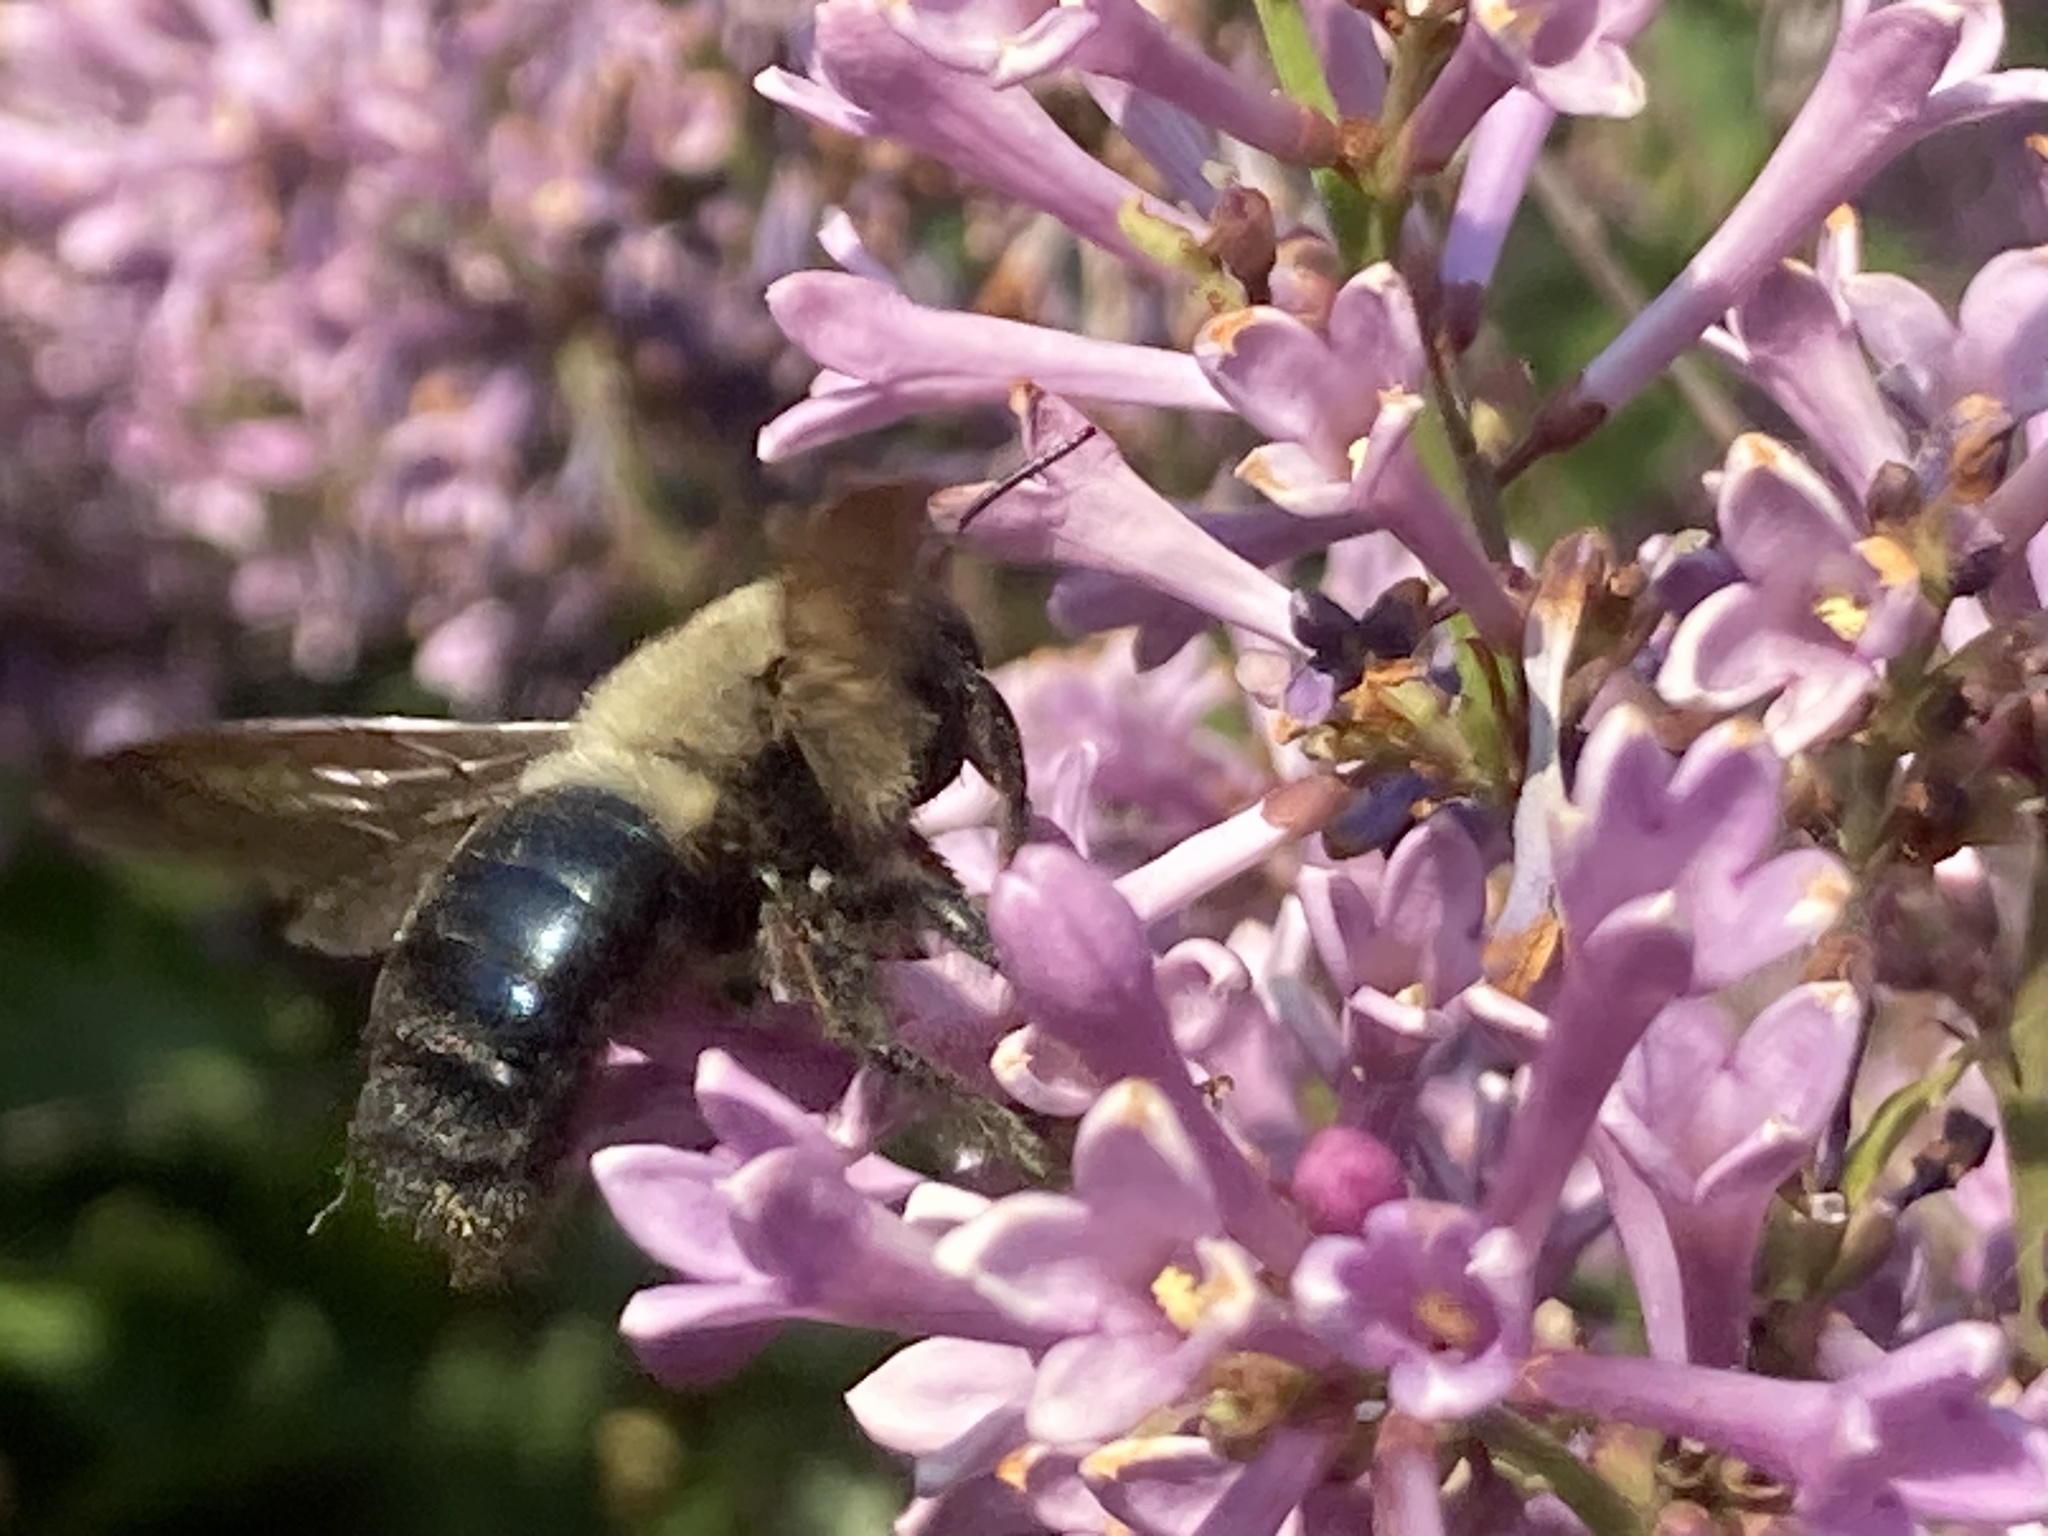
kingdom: Animalia
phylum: Arthropoda
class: Insecta
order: Hymenoptera
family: Apidae
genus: Xylocopa
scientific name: Xylocopa virginica
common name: Carpenter bee
